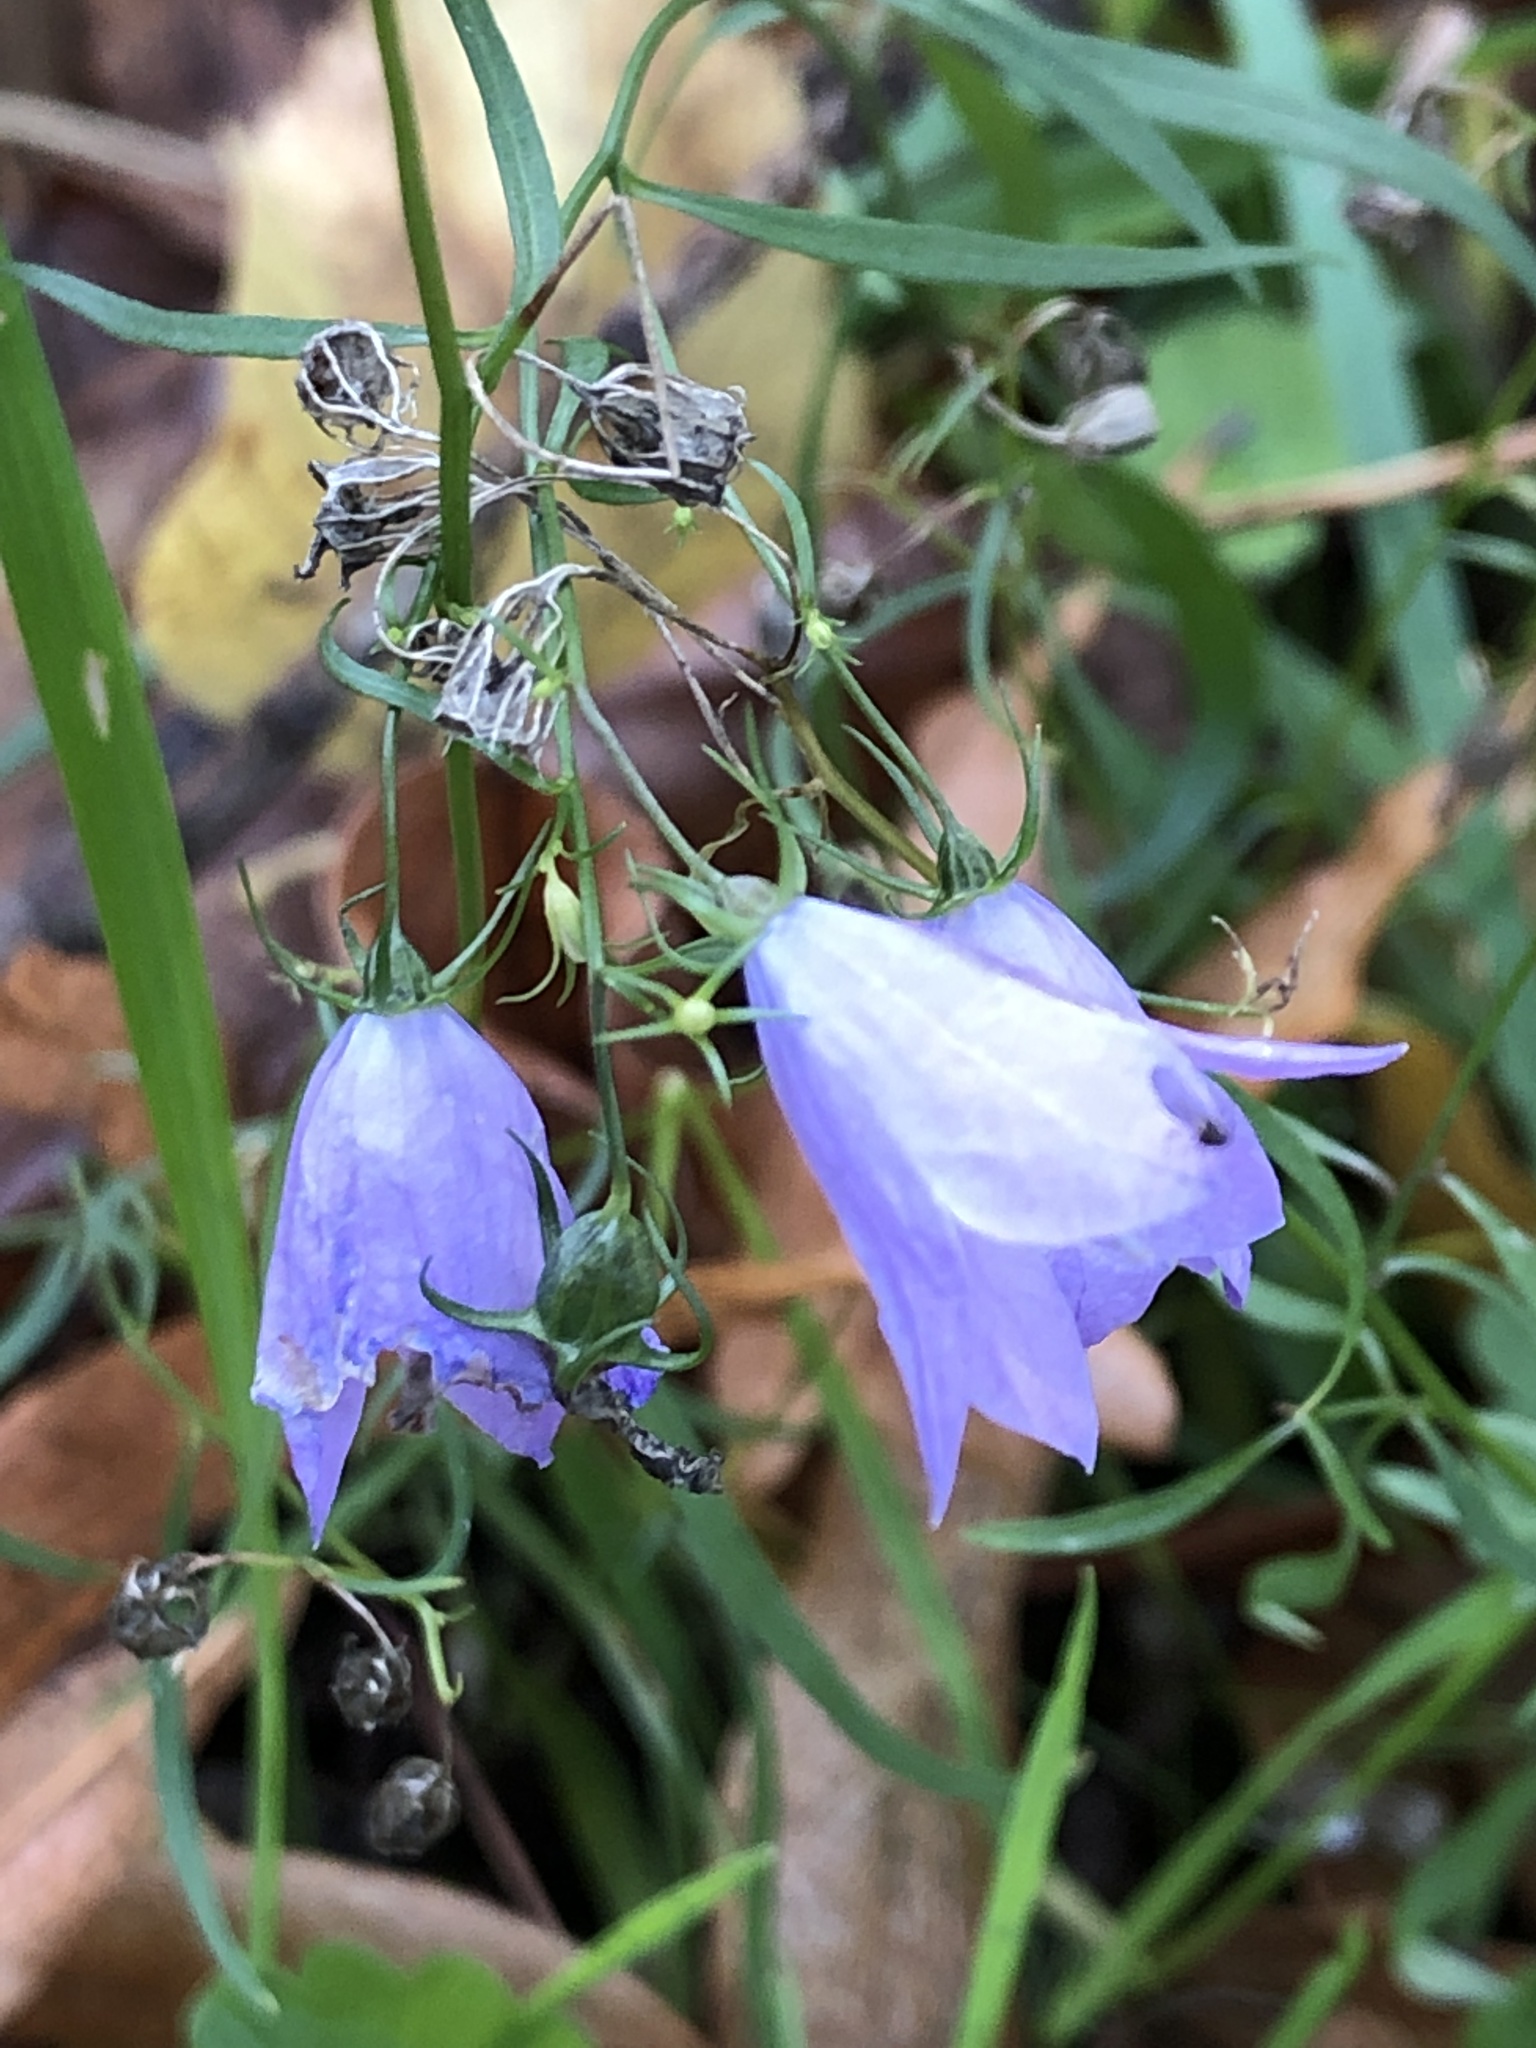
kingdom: Plantae
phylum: Tracheophyta
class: Magnoliopsida
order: Asterales
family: Campanulaceae
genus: Campanula
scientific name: Campanula rotundifolia
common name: Harebell
